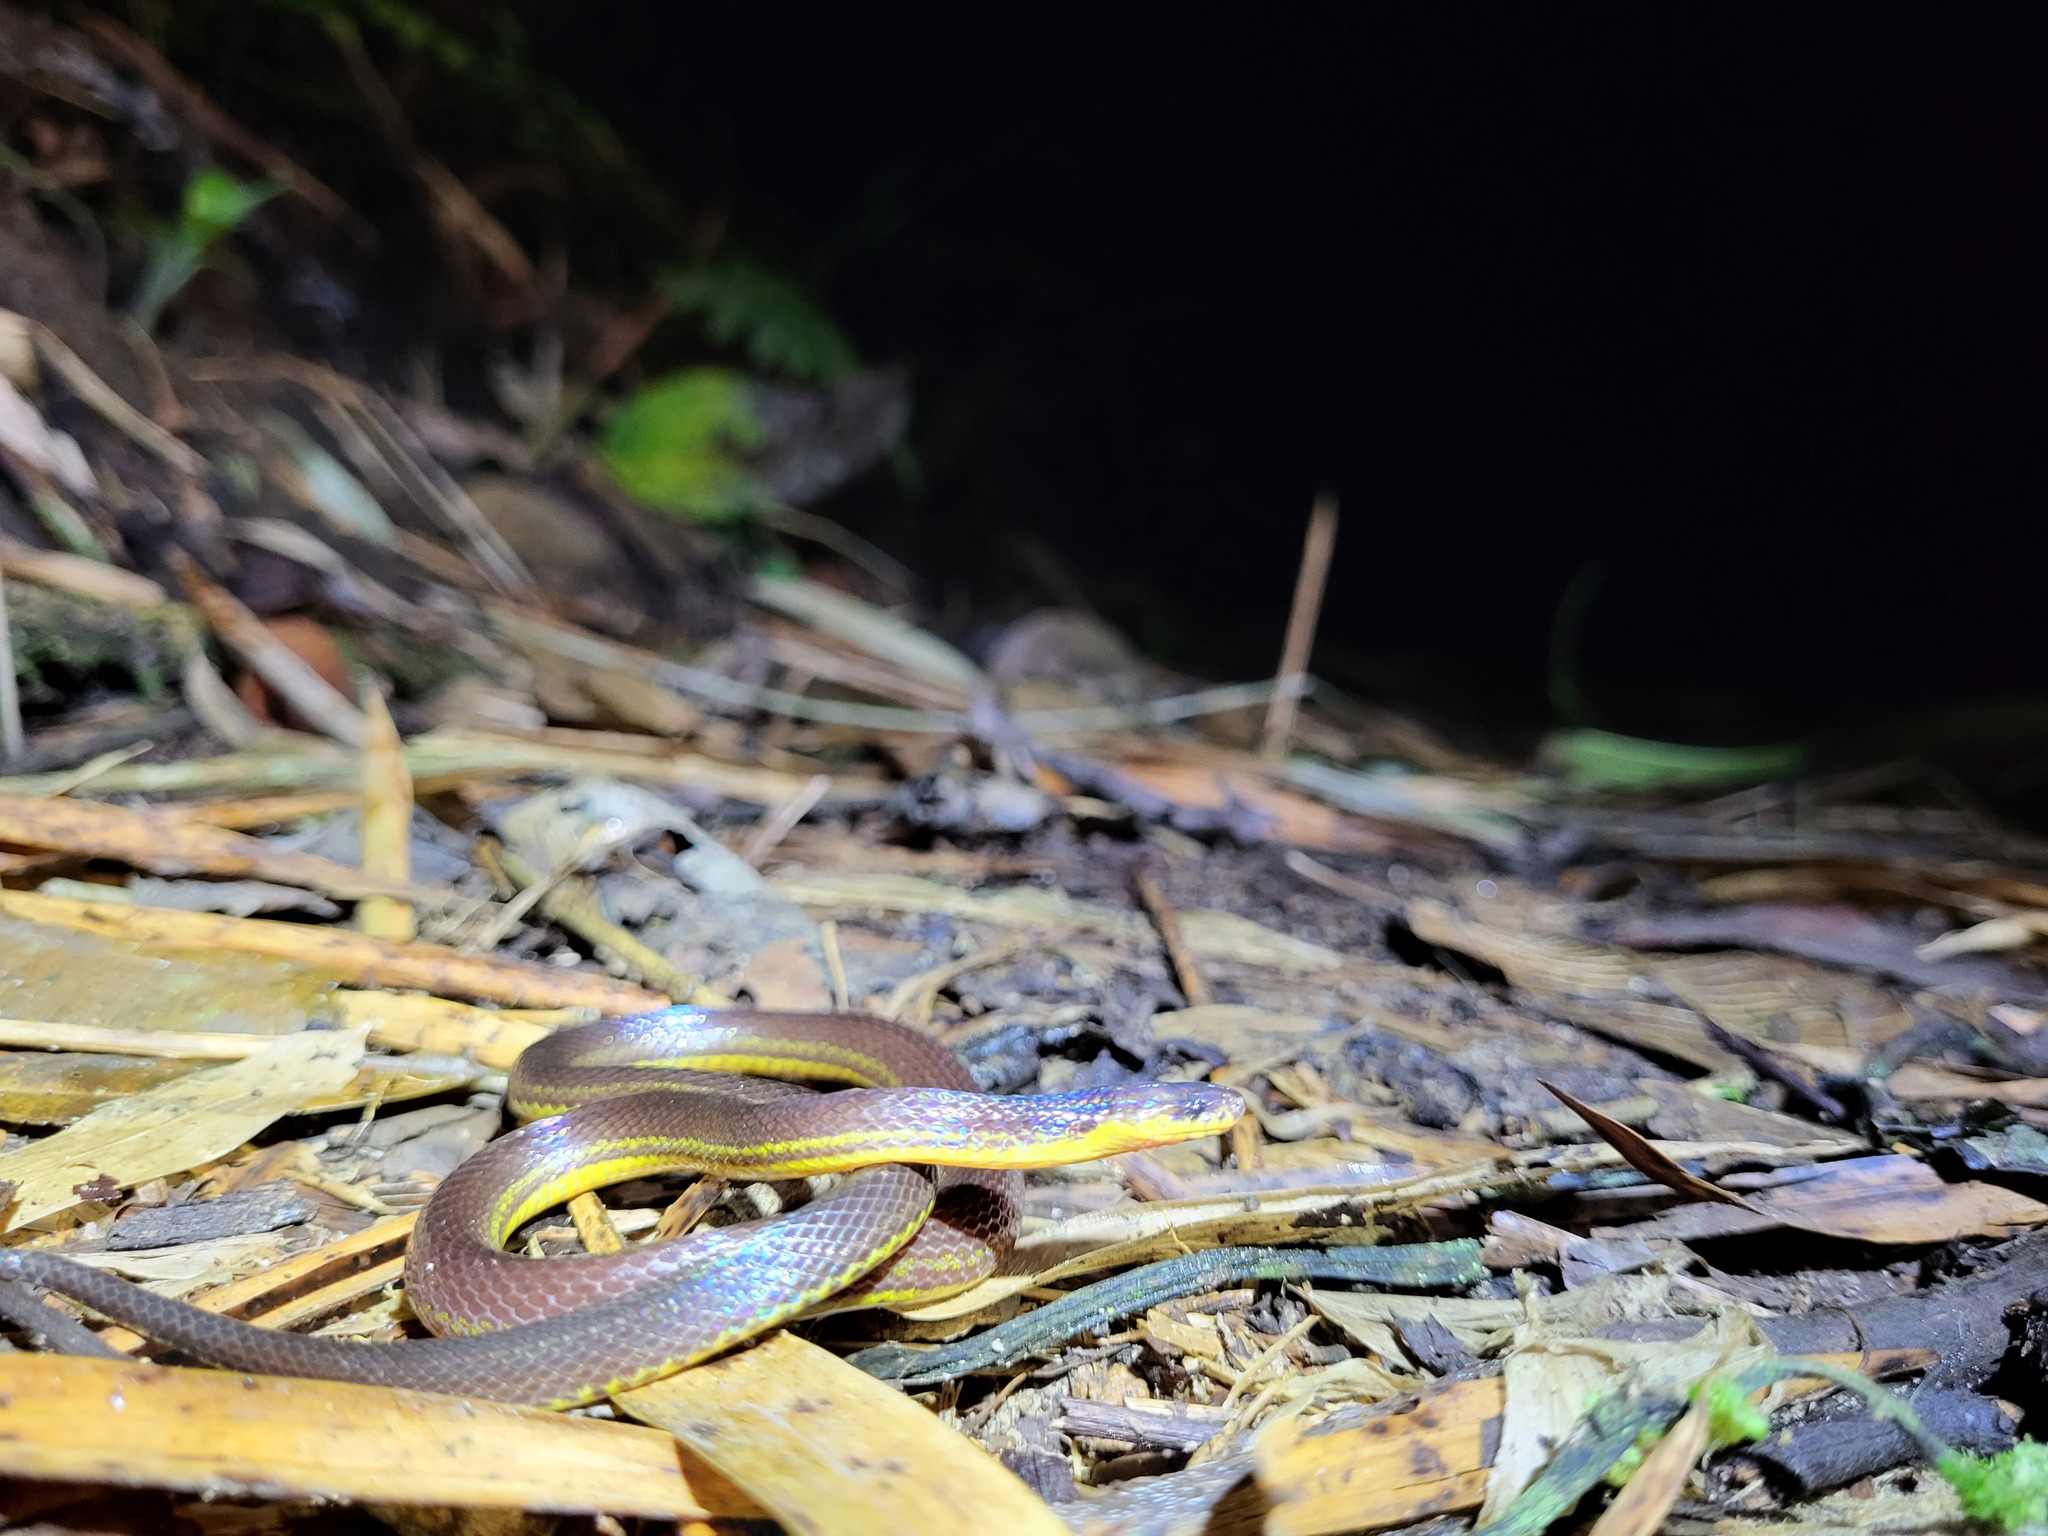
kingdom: Animalia
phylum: Chordata
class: Squamata
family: Colubridae
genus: Atractus
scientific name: Atractus modestus
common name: Modest ground snake
